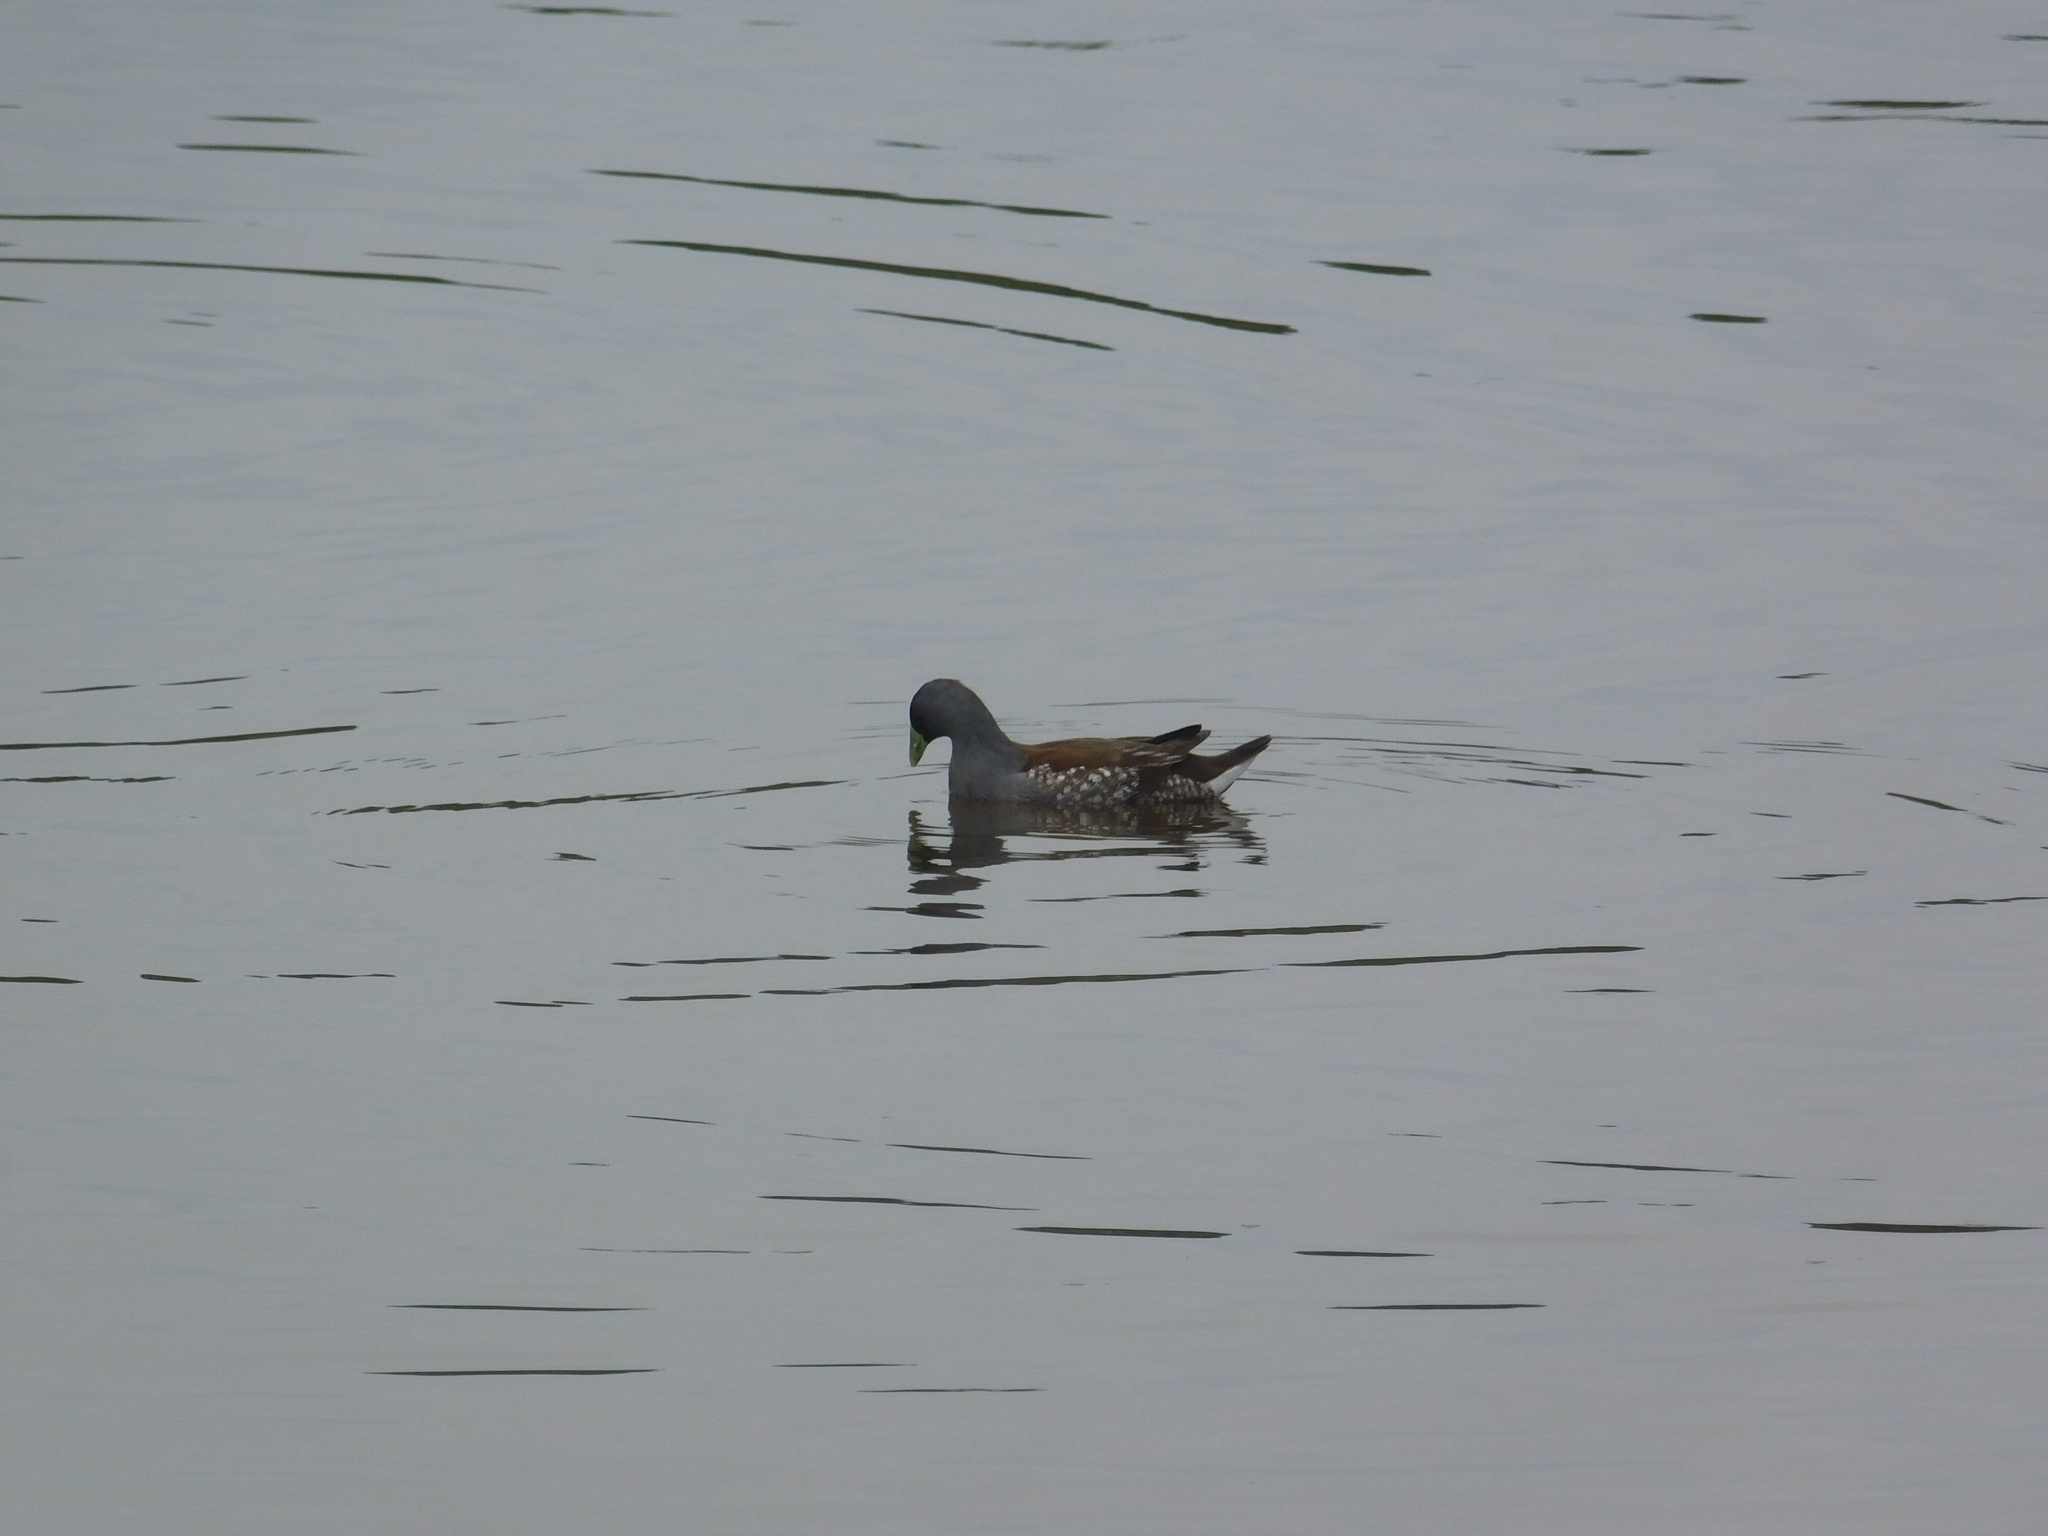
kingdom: Animalia
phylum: Chordata
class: Aves
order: Gruiformes
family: Rallidae
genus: Gallinula
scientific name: Gallinula melanops
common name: Spot-flanked gallinule
